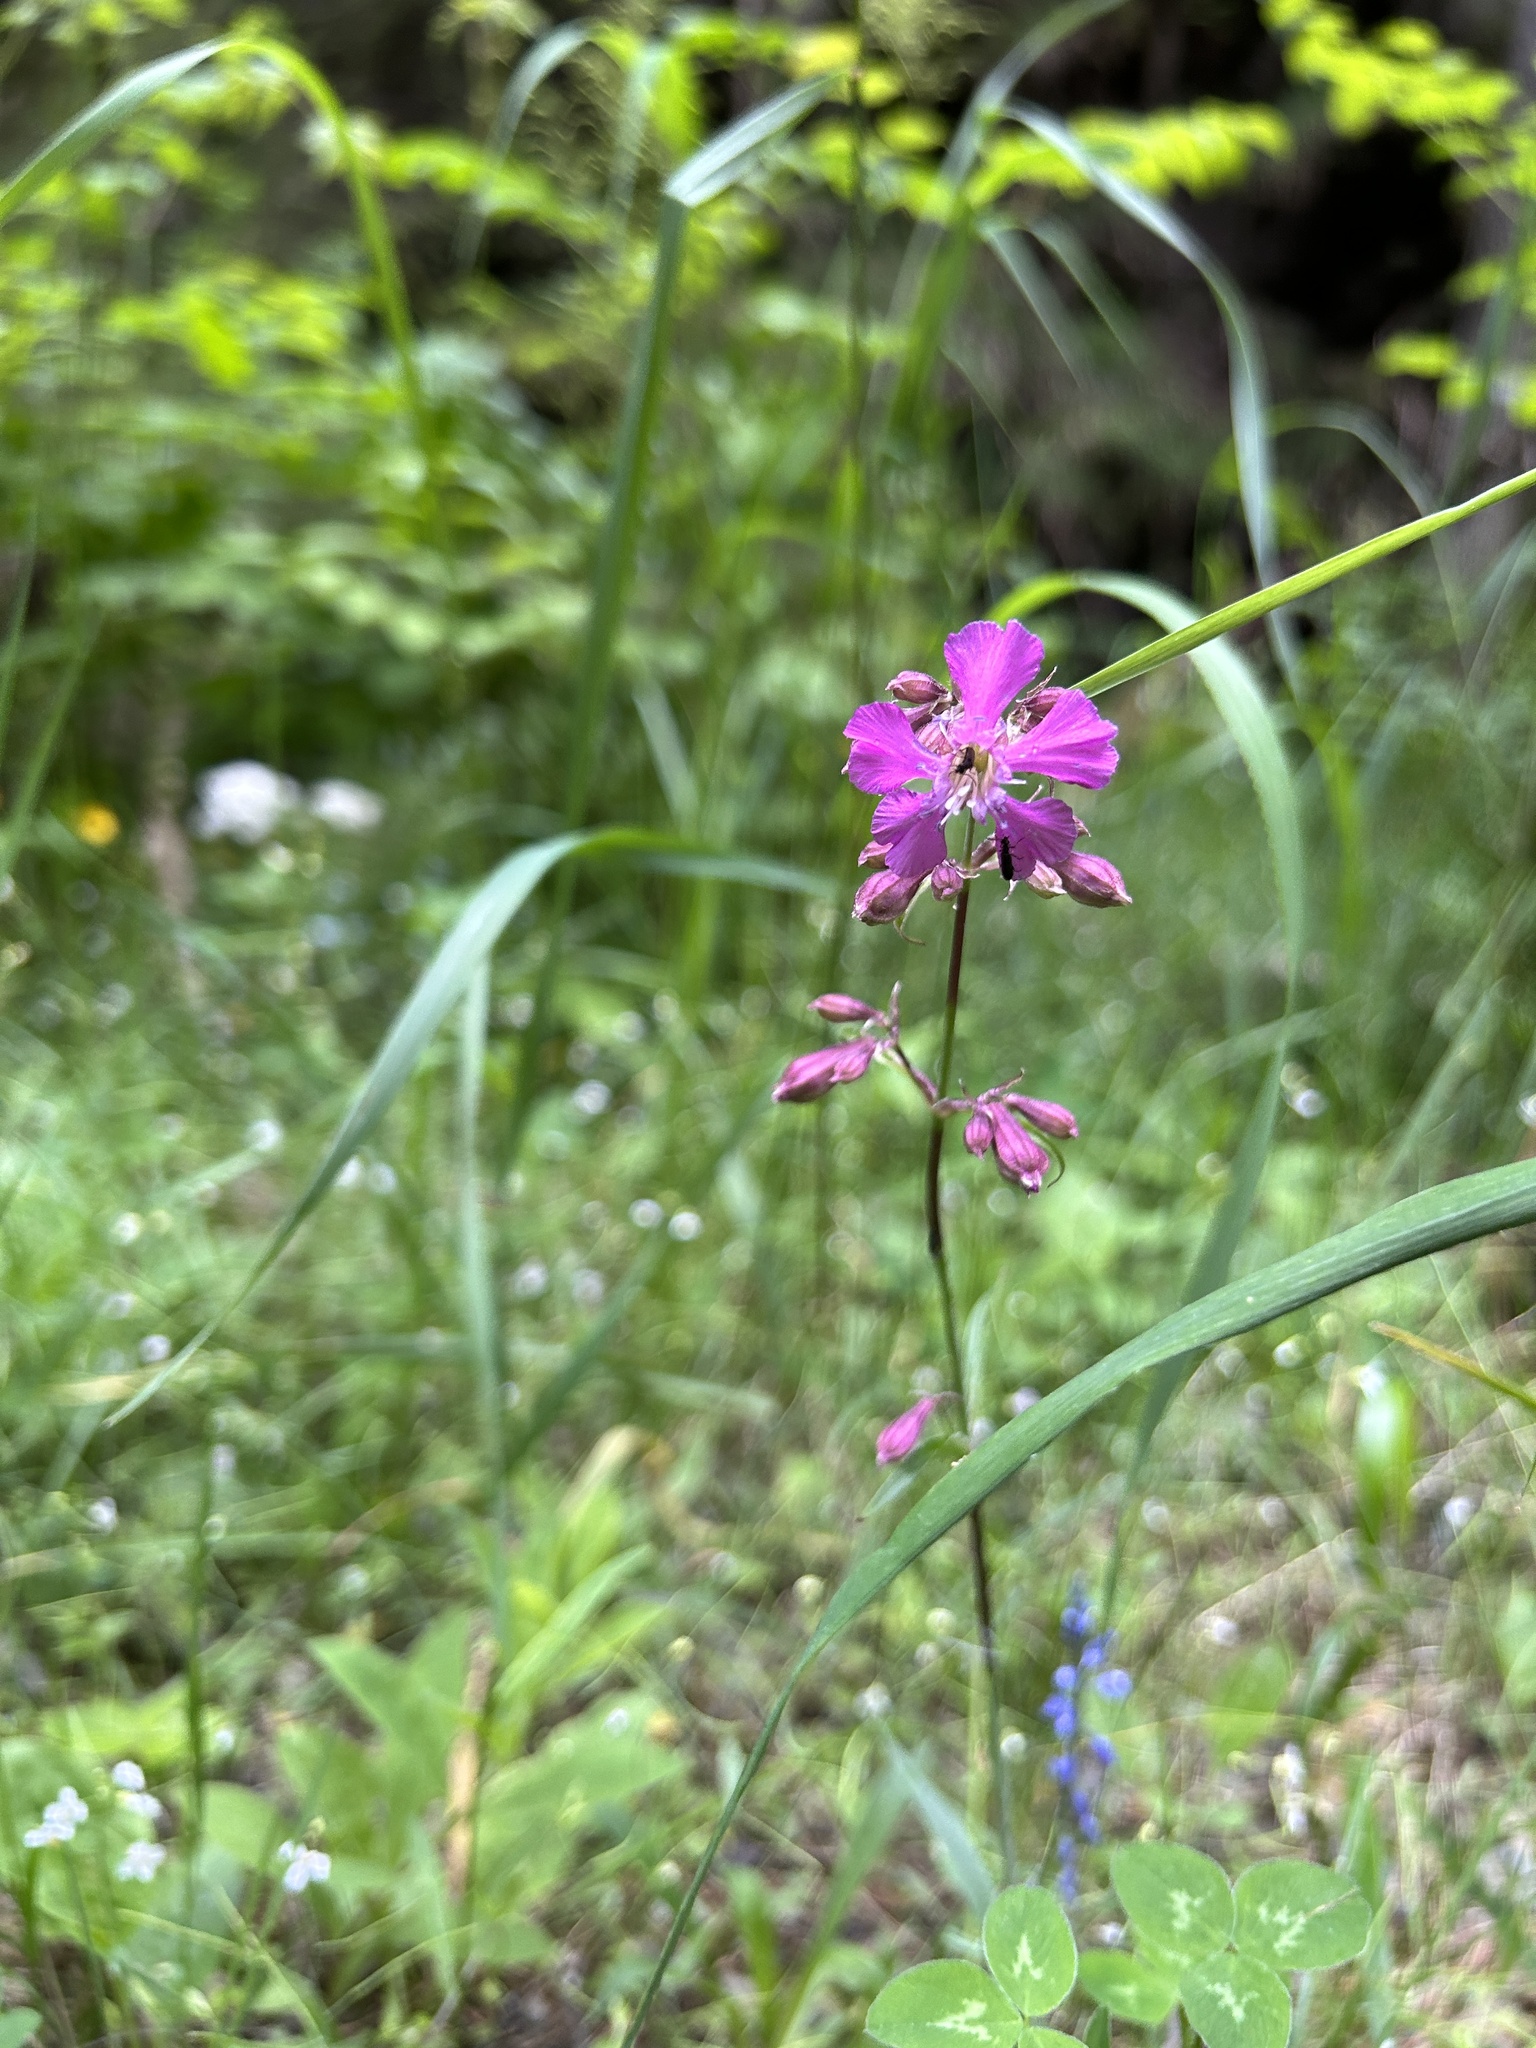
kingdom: Plantae
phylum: Tracheophyta
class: Magnoliopsida
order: Caryophyllales
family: Caryophyllaceae
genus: Viscaria
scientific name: Viscaria vulgaris
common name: Clammy campion
